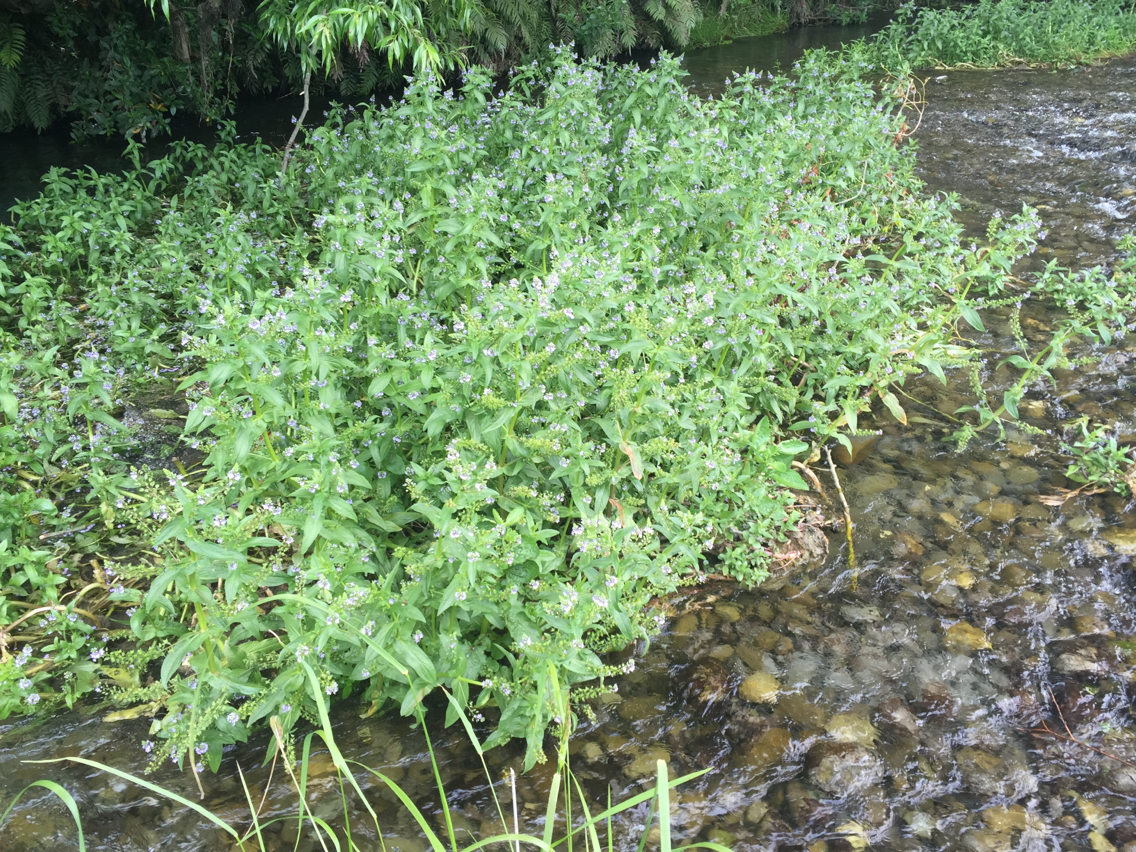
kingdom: Plantae
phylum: Tracheophyta
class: Magnoliopsida
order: Lamiales
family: Plantaginaceae
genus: Veronica
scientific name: Veronica anagallis-aquatica
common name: Water speedwell
